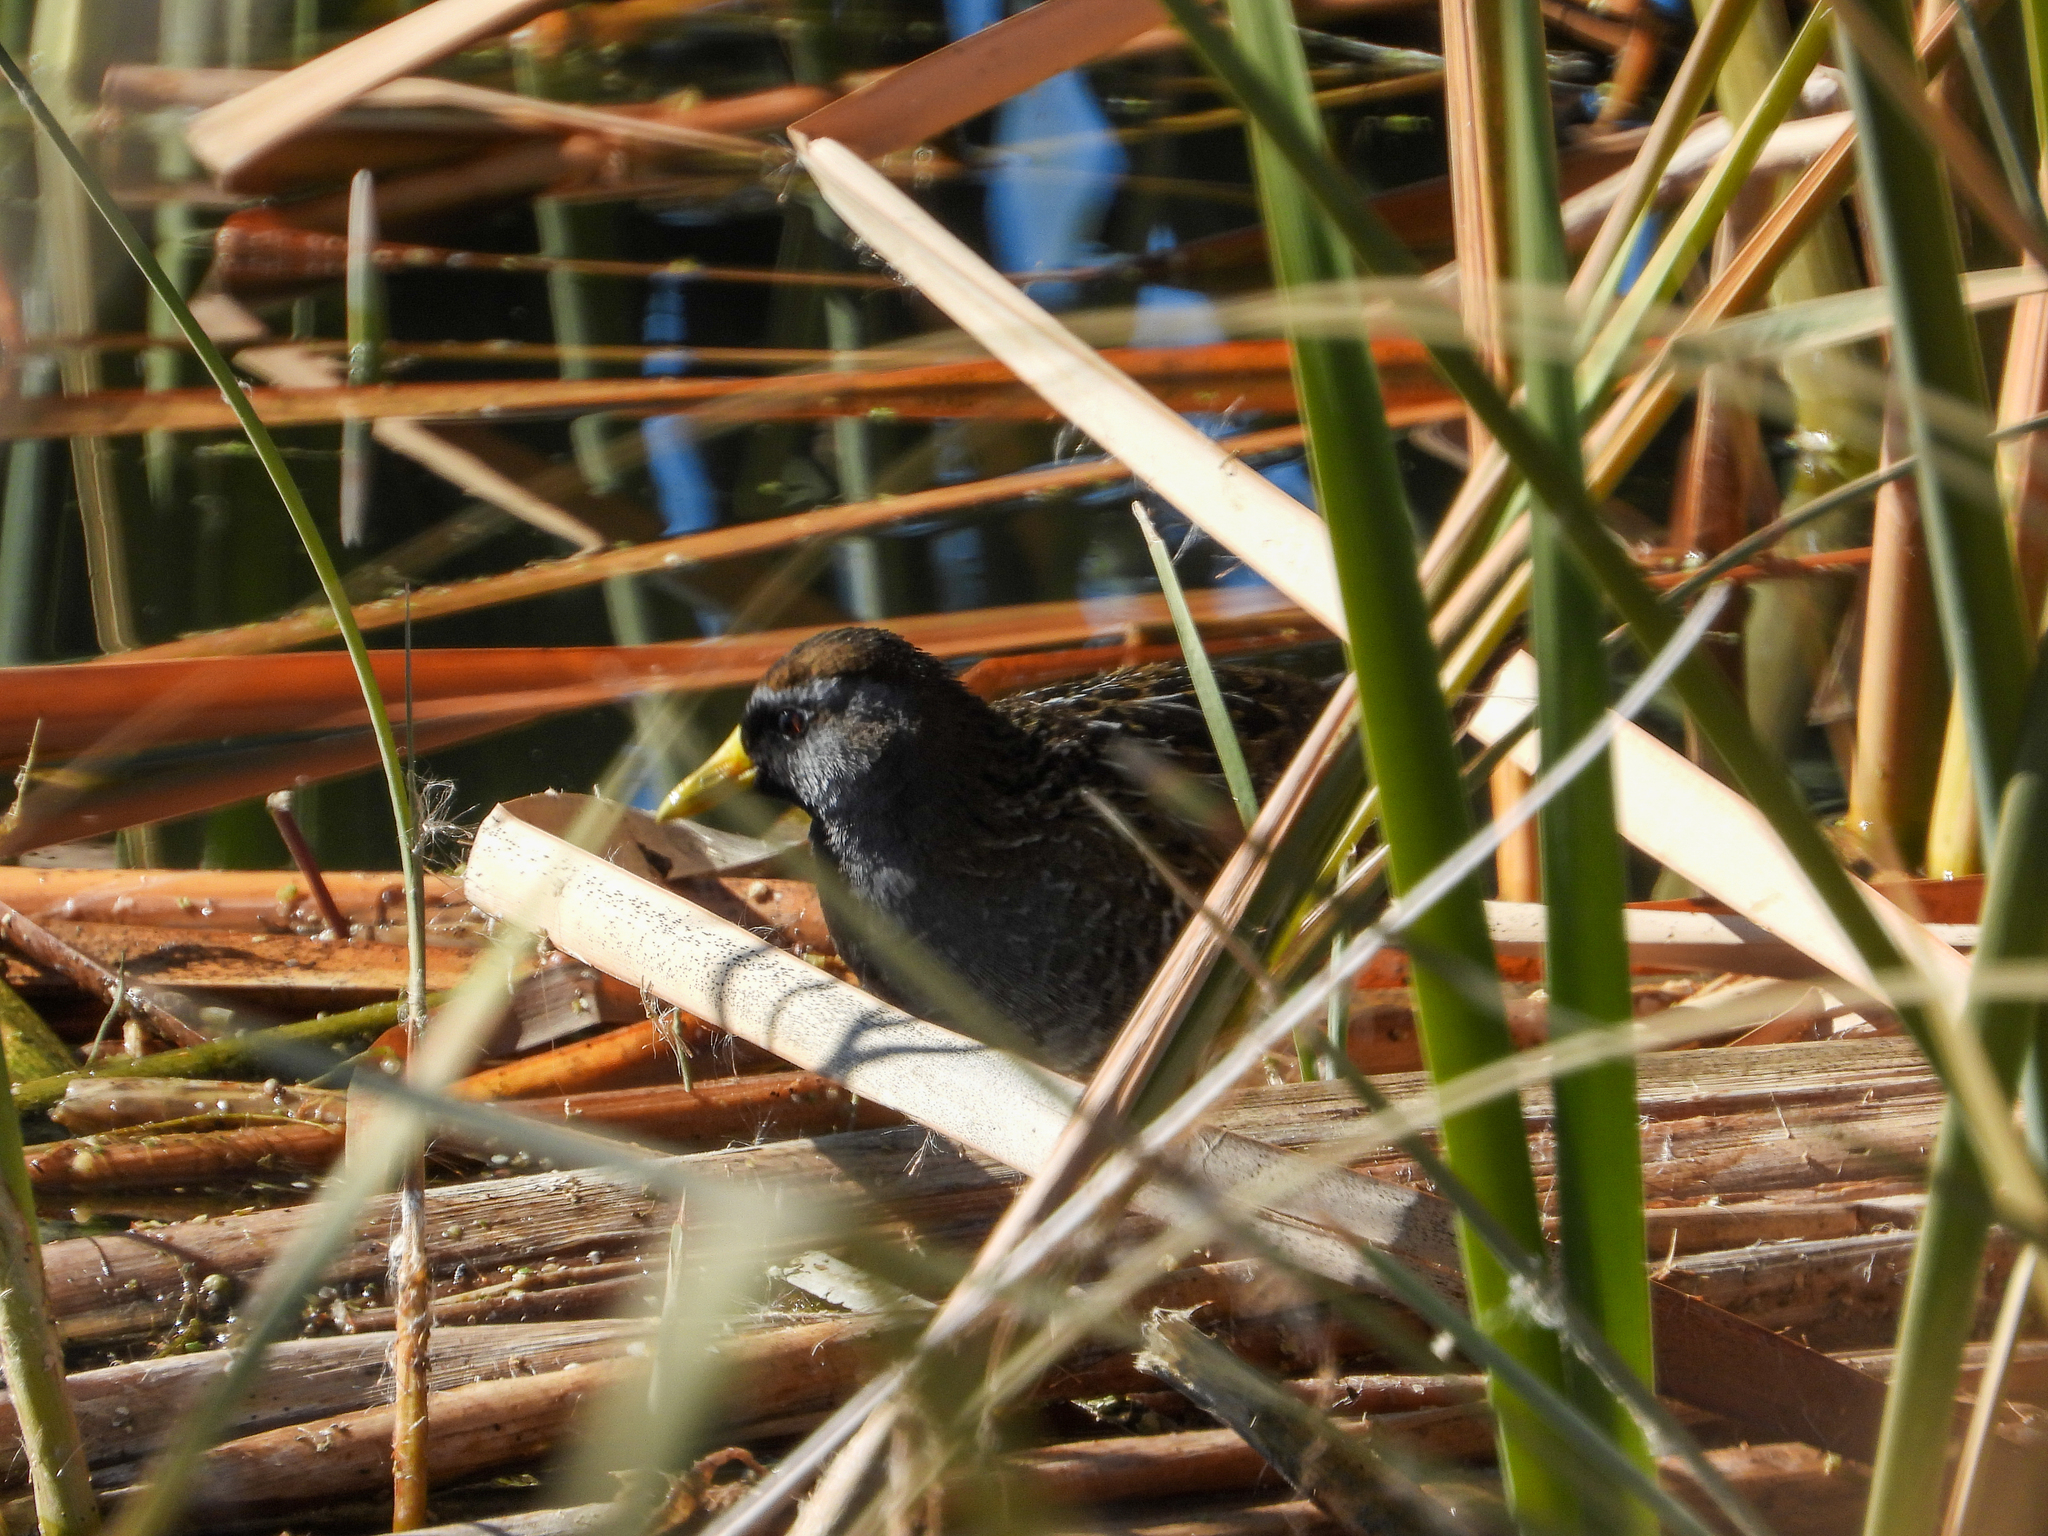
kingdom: Animalia
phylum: Chordata
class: Aves
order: Gruiformes
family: Rallidae
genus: Porzana
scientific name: Porzana carolina
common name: Sora
